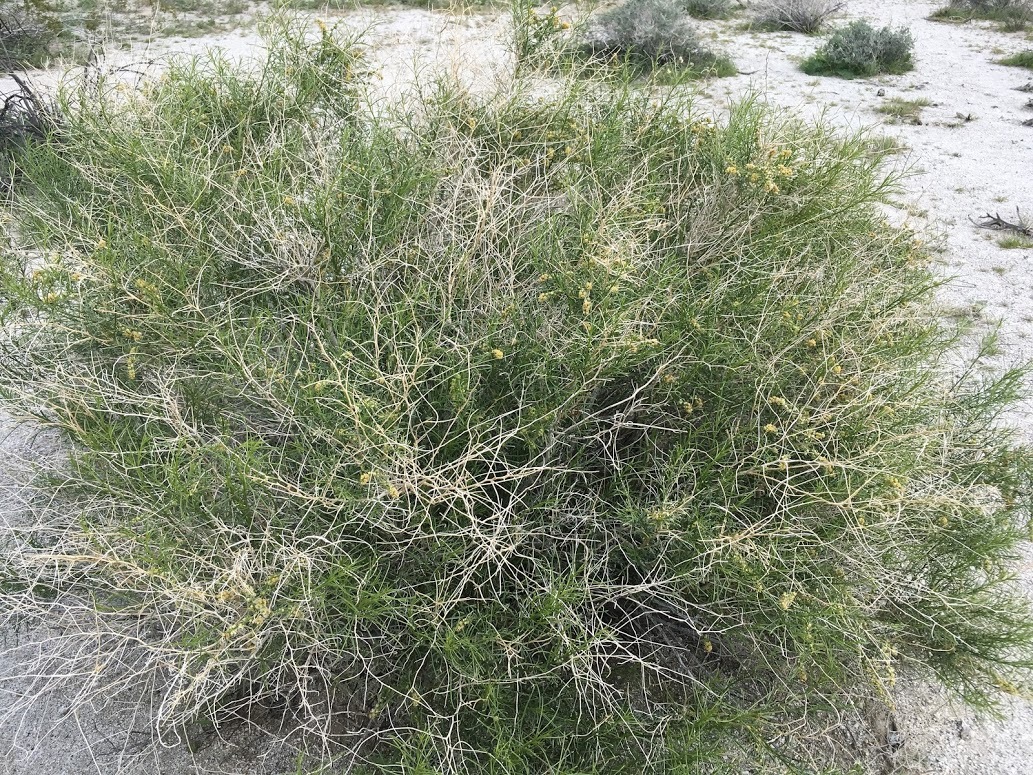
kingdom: Plantae
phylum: Tracheophyta
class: Magnoliopsida
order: Asterales
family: Asteraceae
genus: Ambrosia
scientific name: Ambrosia salsola
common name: Burrobrush
